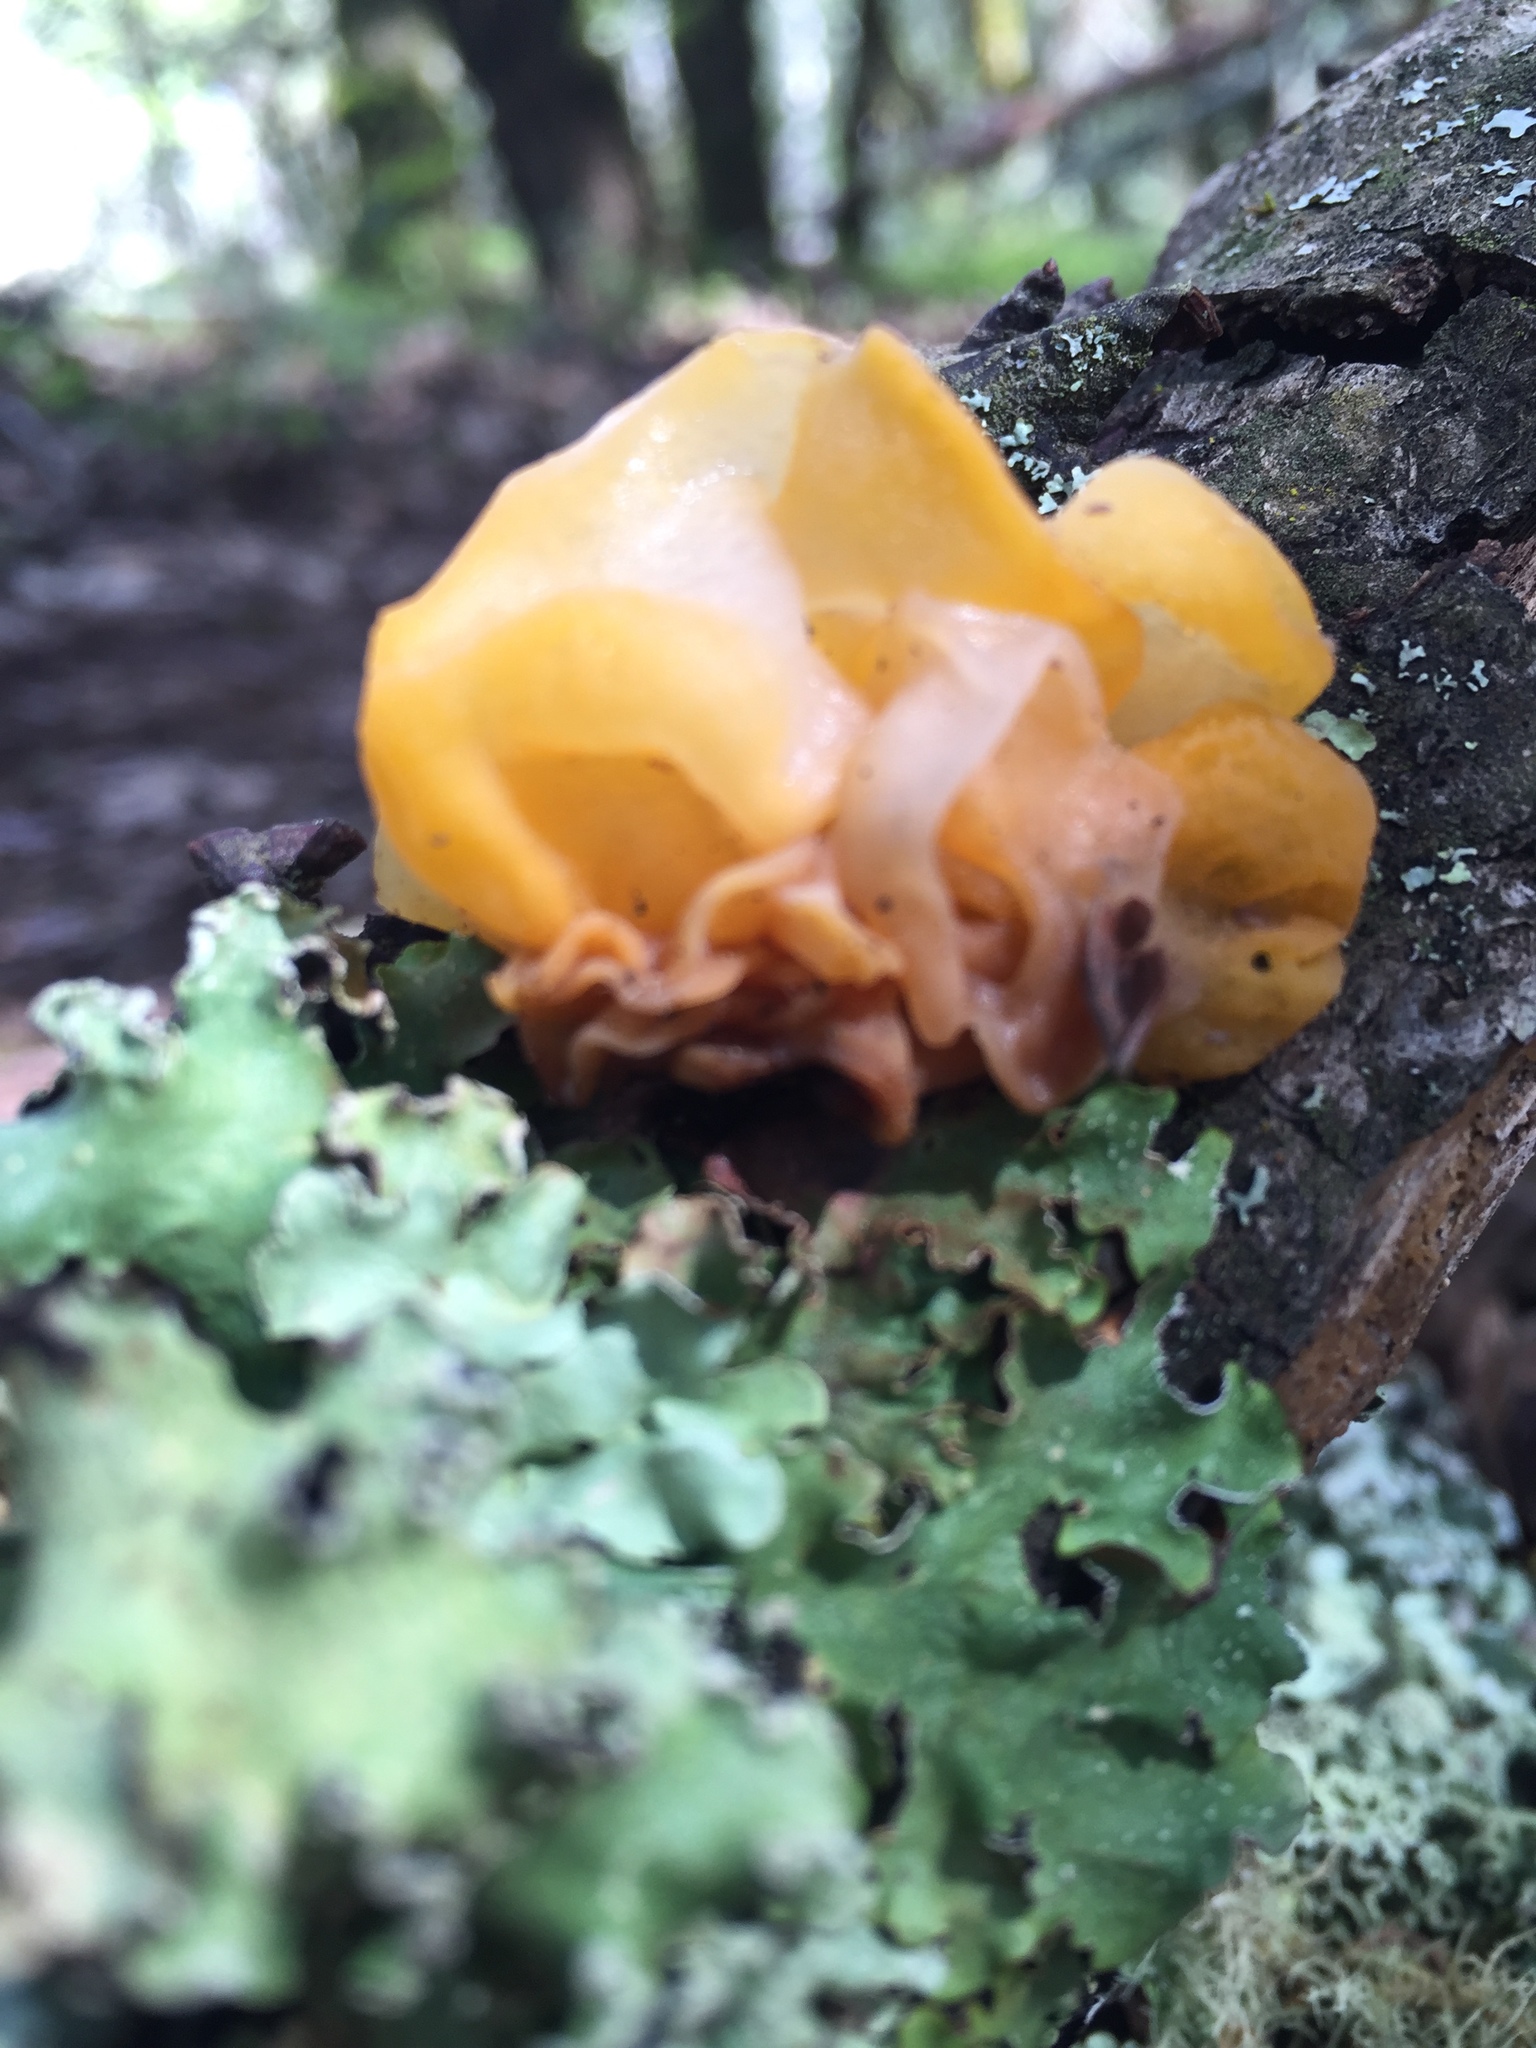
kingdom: Fungi
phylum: Basidiomycota
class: Tremellomycetes
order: Tremellales
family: Tremellaceae
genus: Tremella
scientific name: Tremella mesenterica
